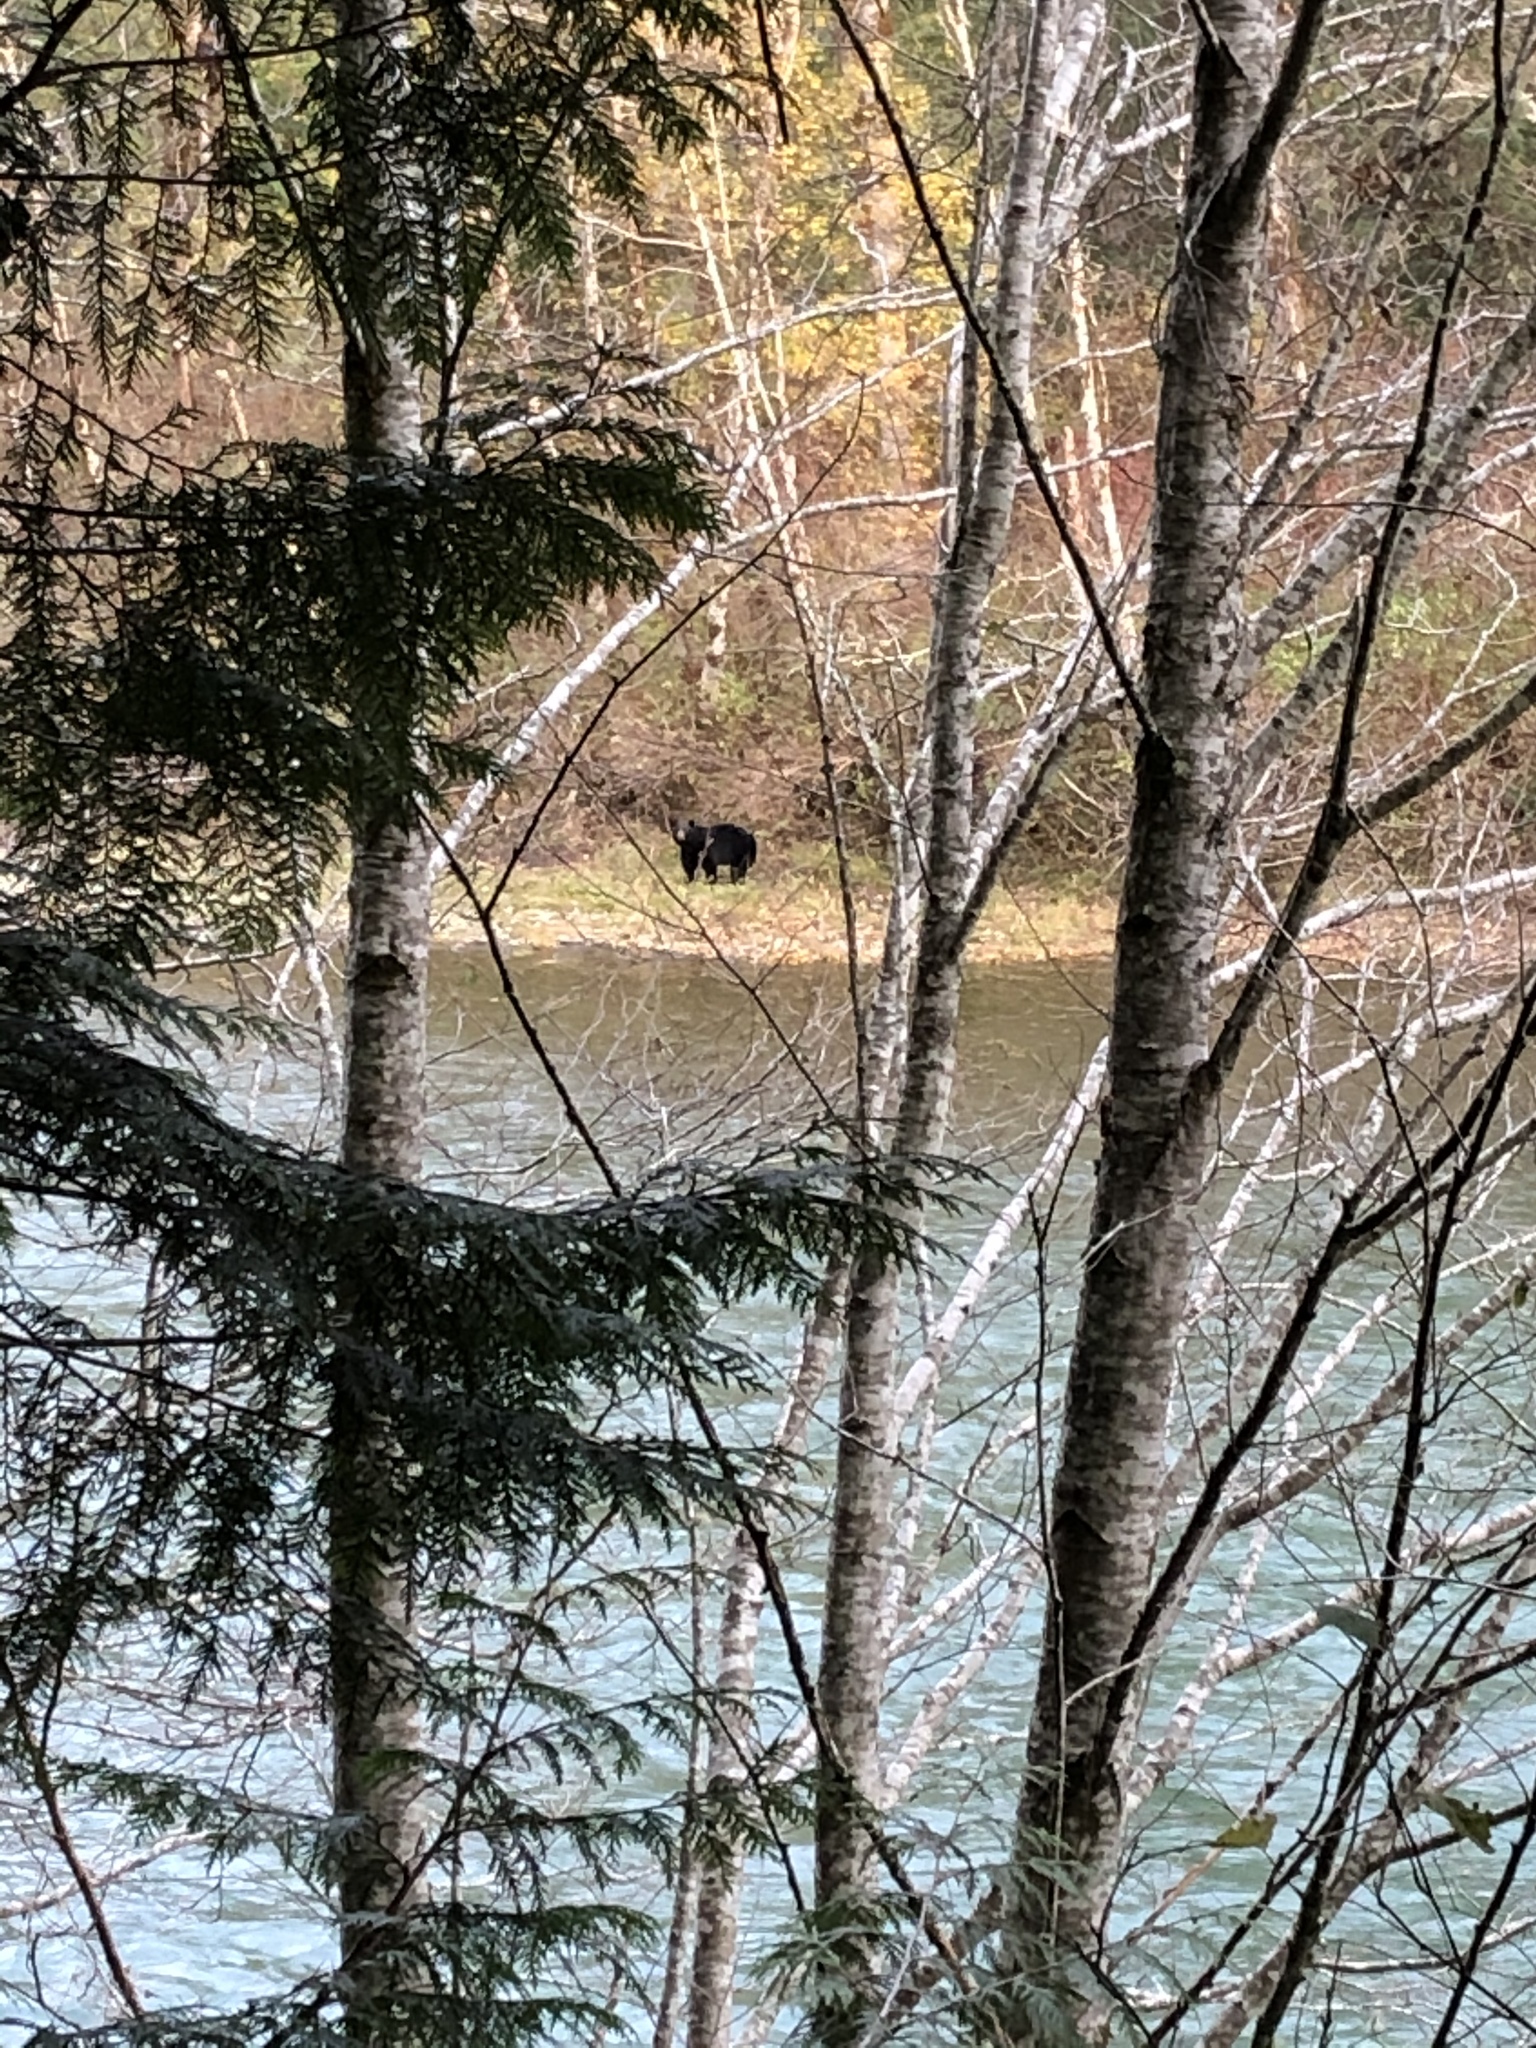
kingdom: Animalia
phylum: Chordata
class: Mammalia
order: Carnivora
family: Ursidae
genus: Ursus
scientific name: Ursus americanus
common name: American black bear
